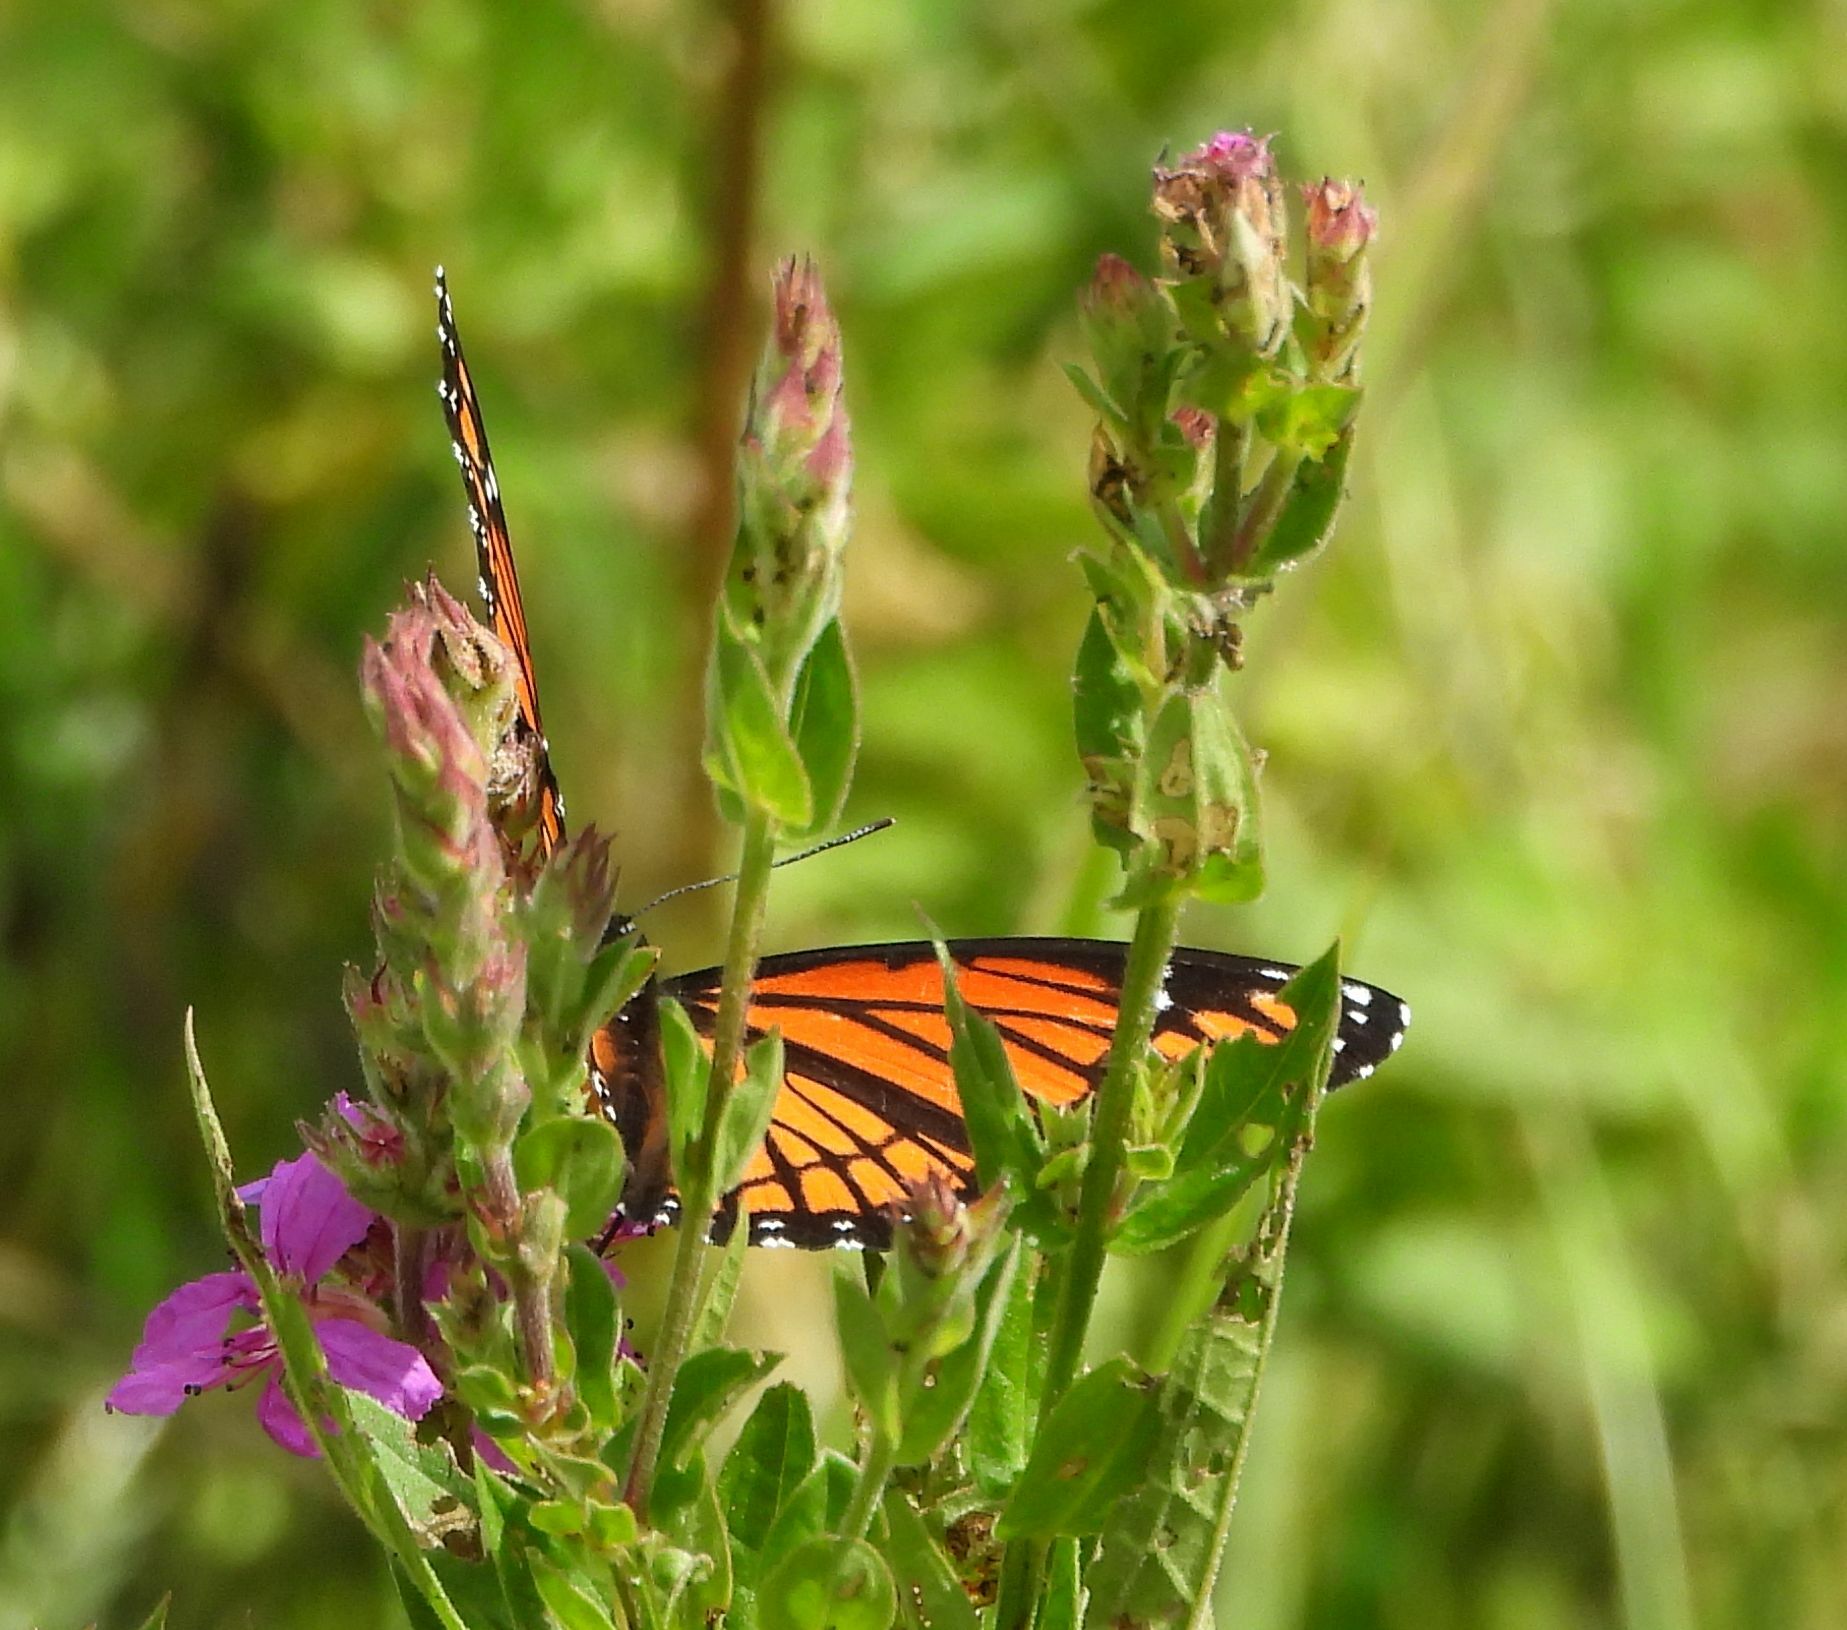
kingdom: Animalia
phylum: Arthropoda
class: Insecta
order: Lepidoptera
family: Nymphalidae
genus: Limenitis
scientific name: Limenitis archippus
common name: Viceroy
